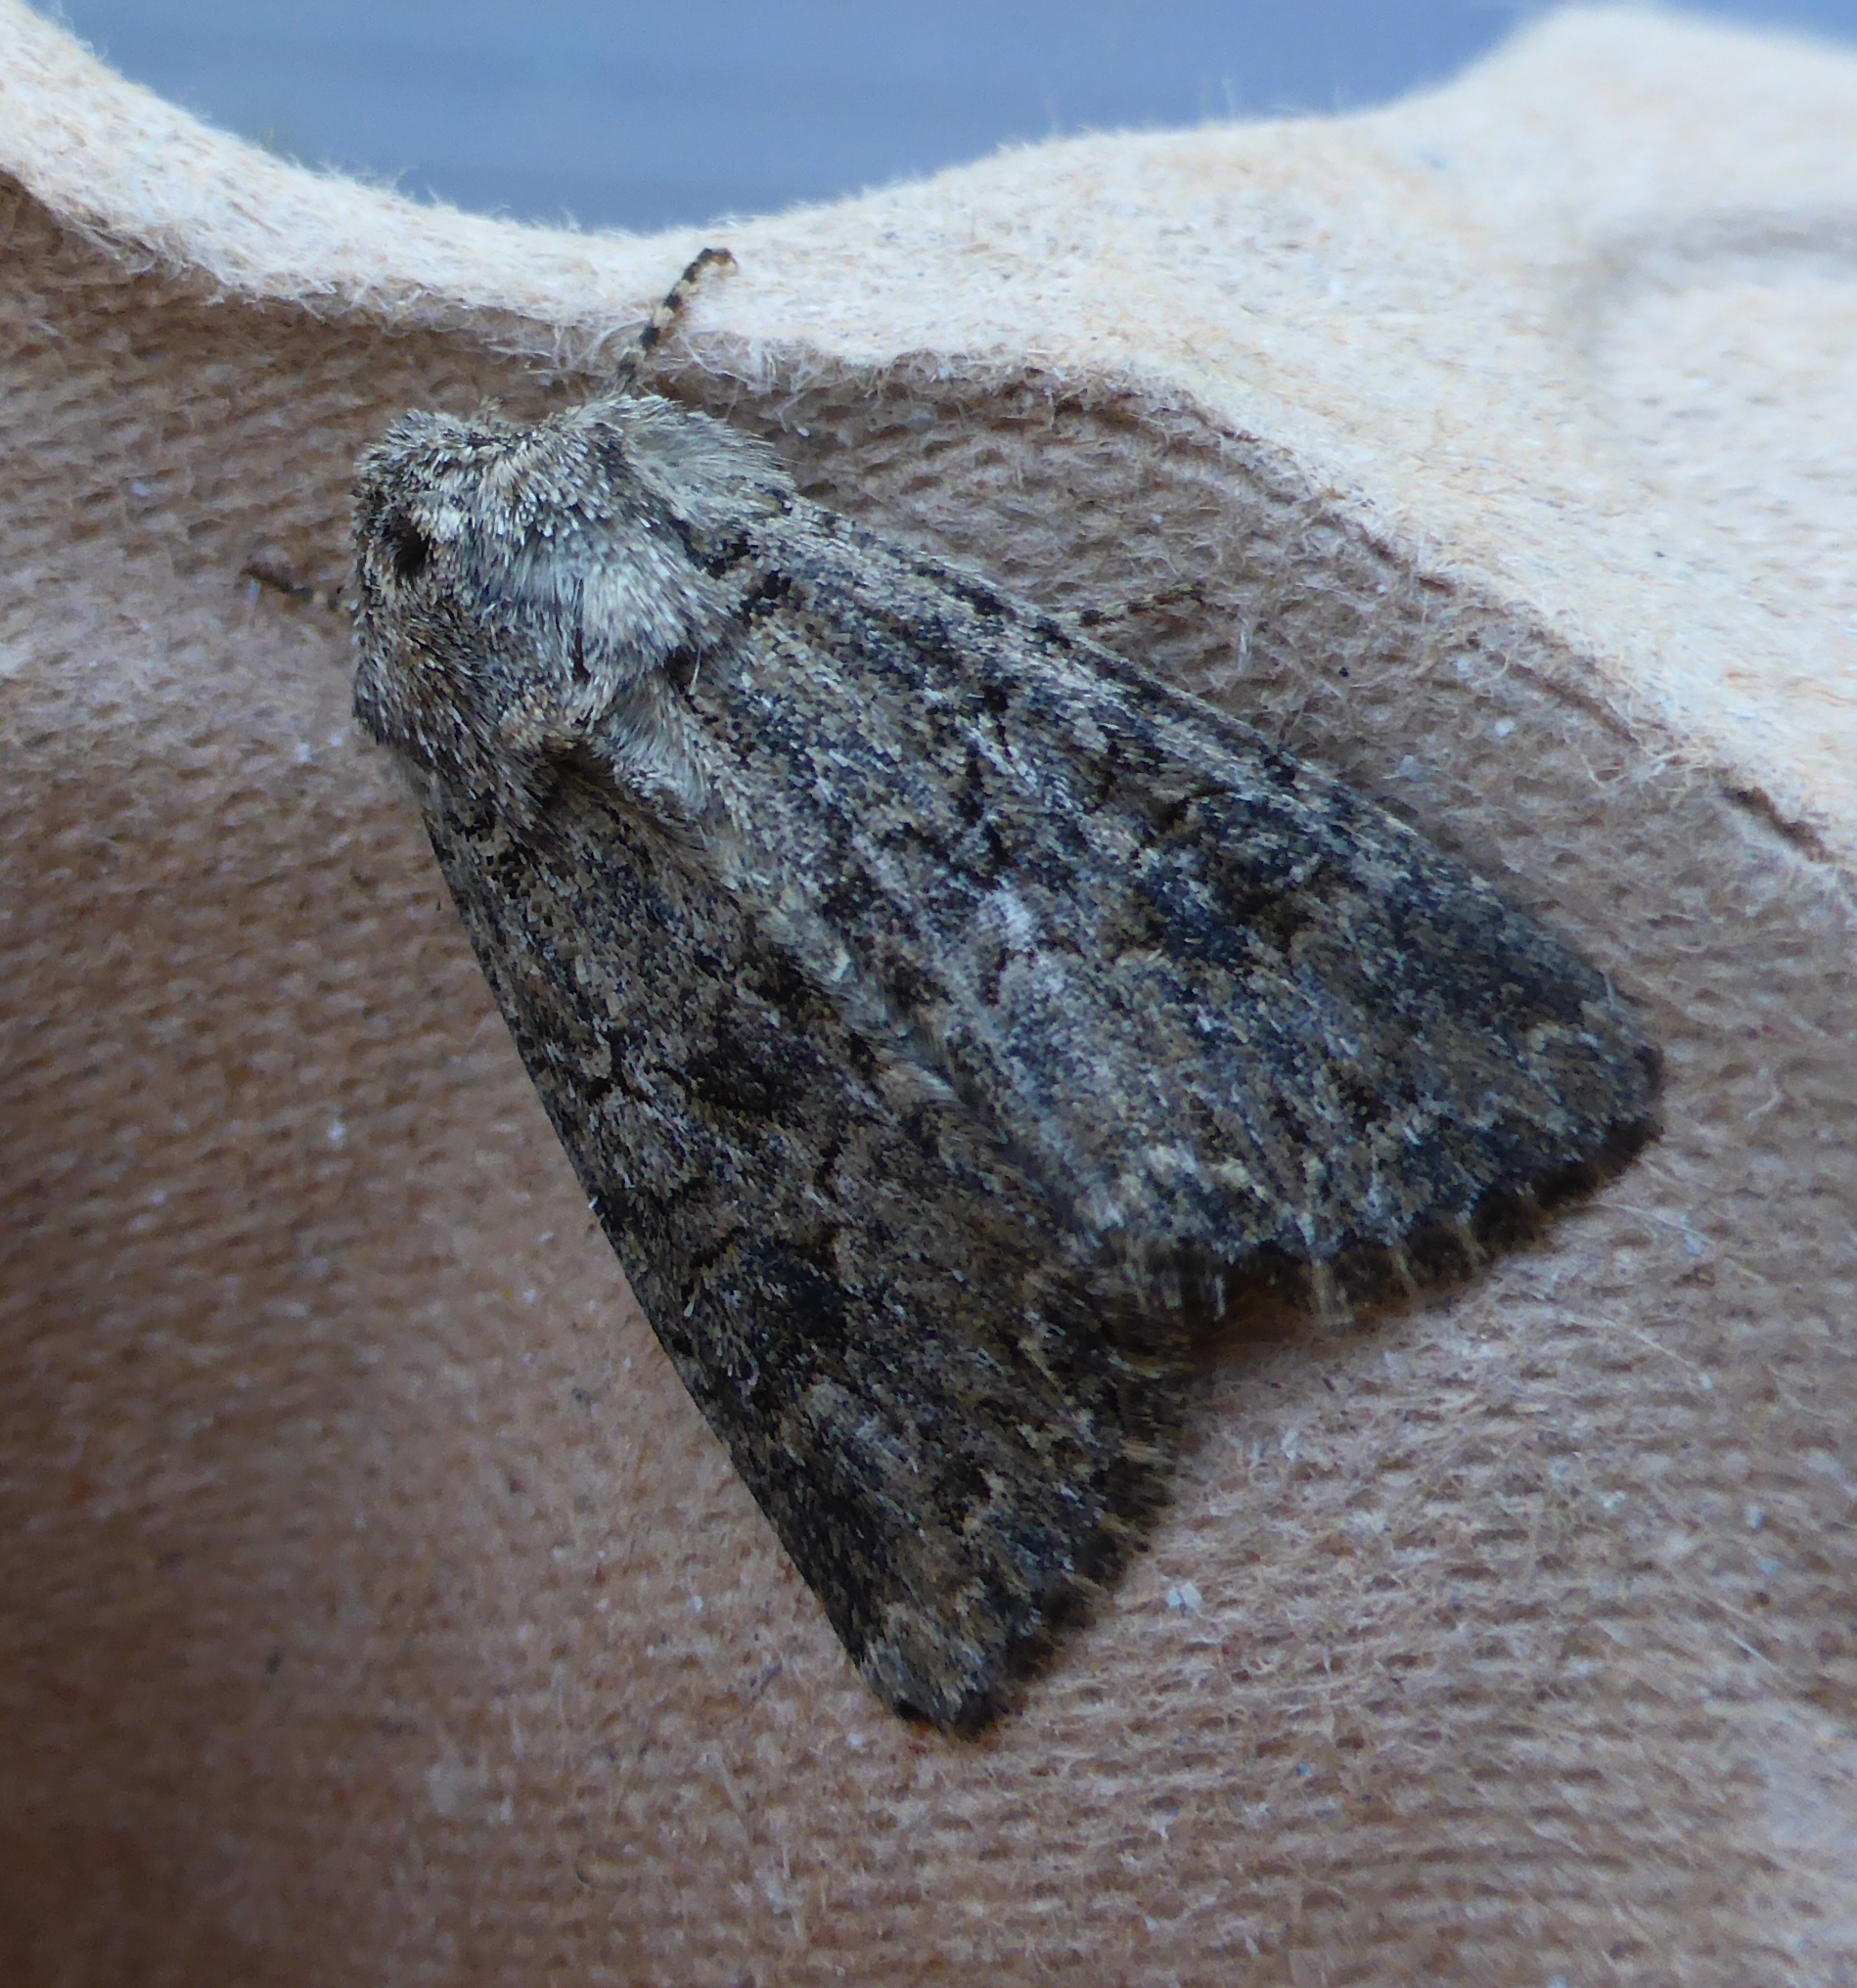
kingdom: Animalia
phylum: Arthropoda
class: Insecta
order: Lepidoptera
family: Noctuidae
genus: Anarta
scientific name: Anarta trifolii
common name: Clover cutworm moth
